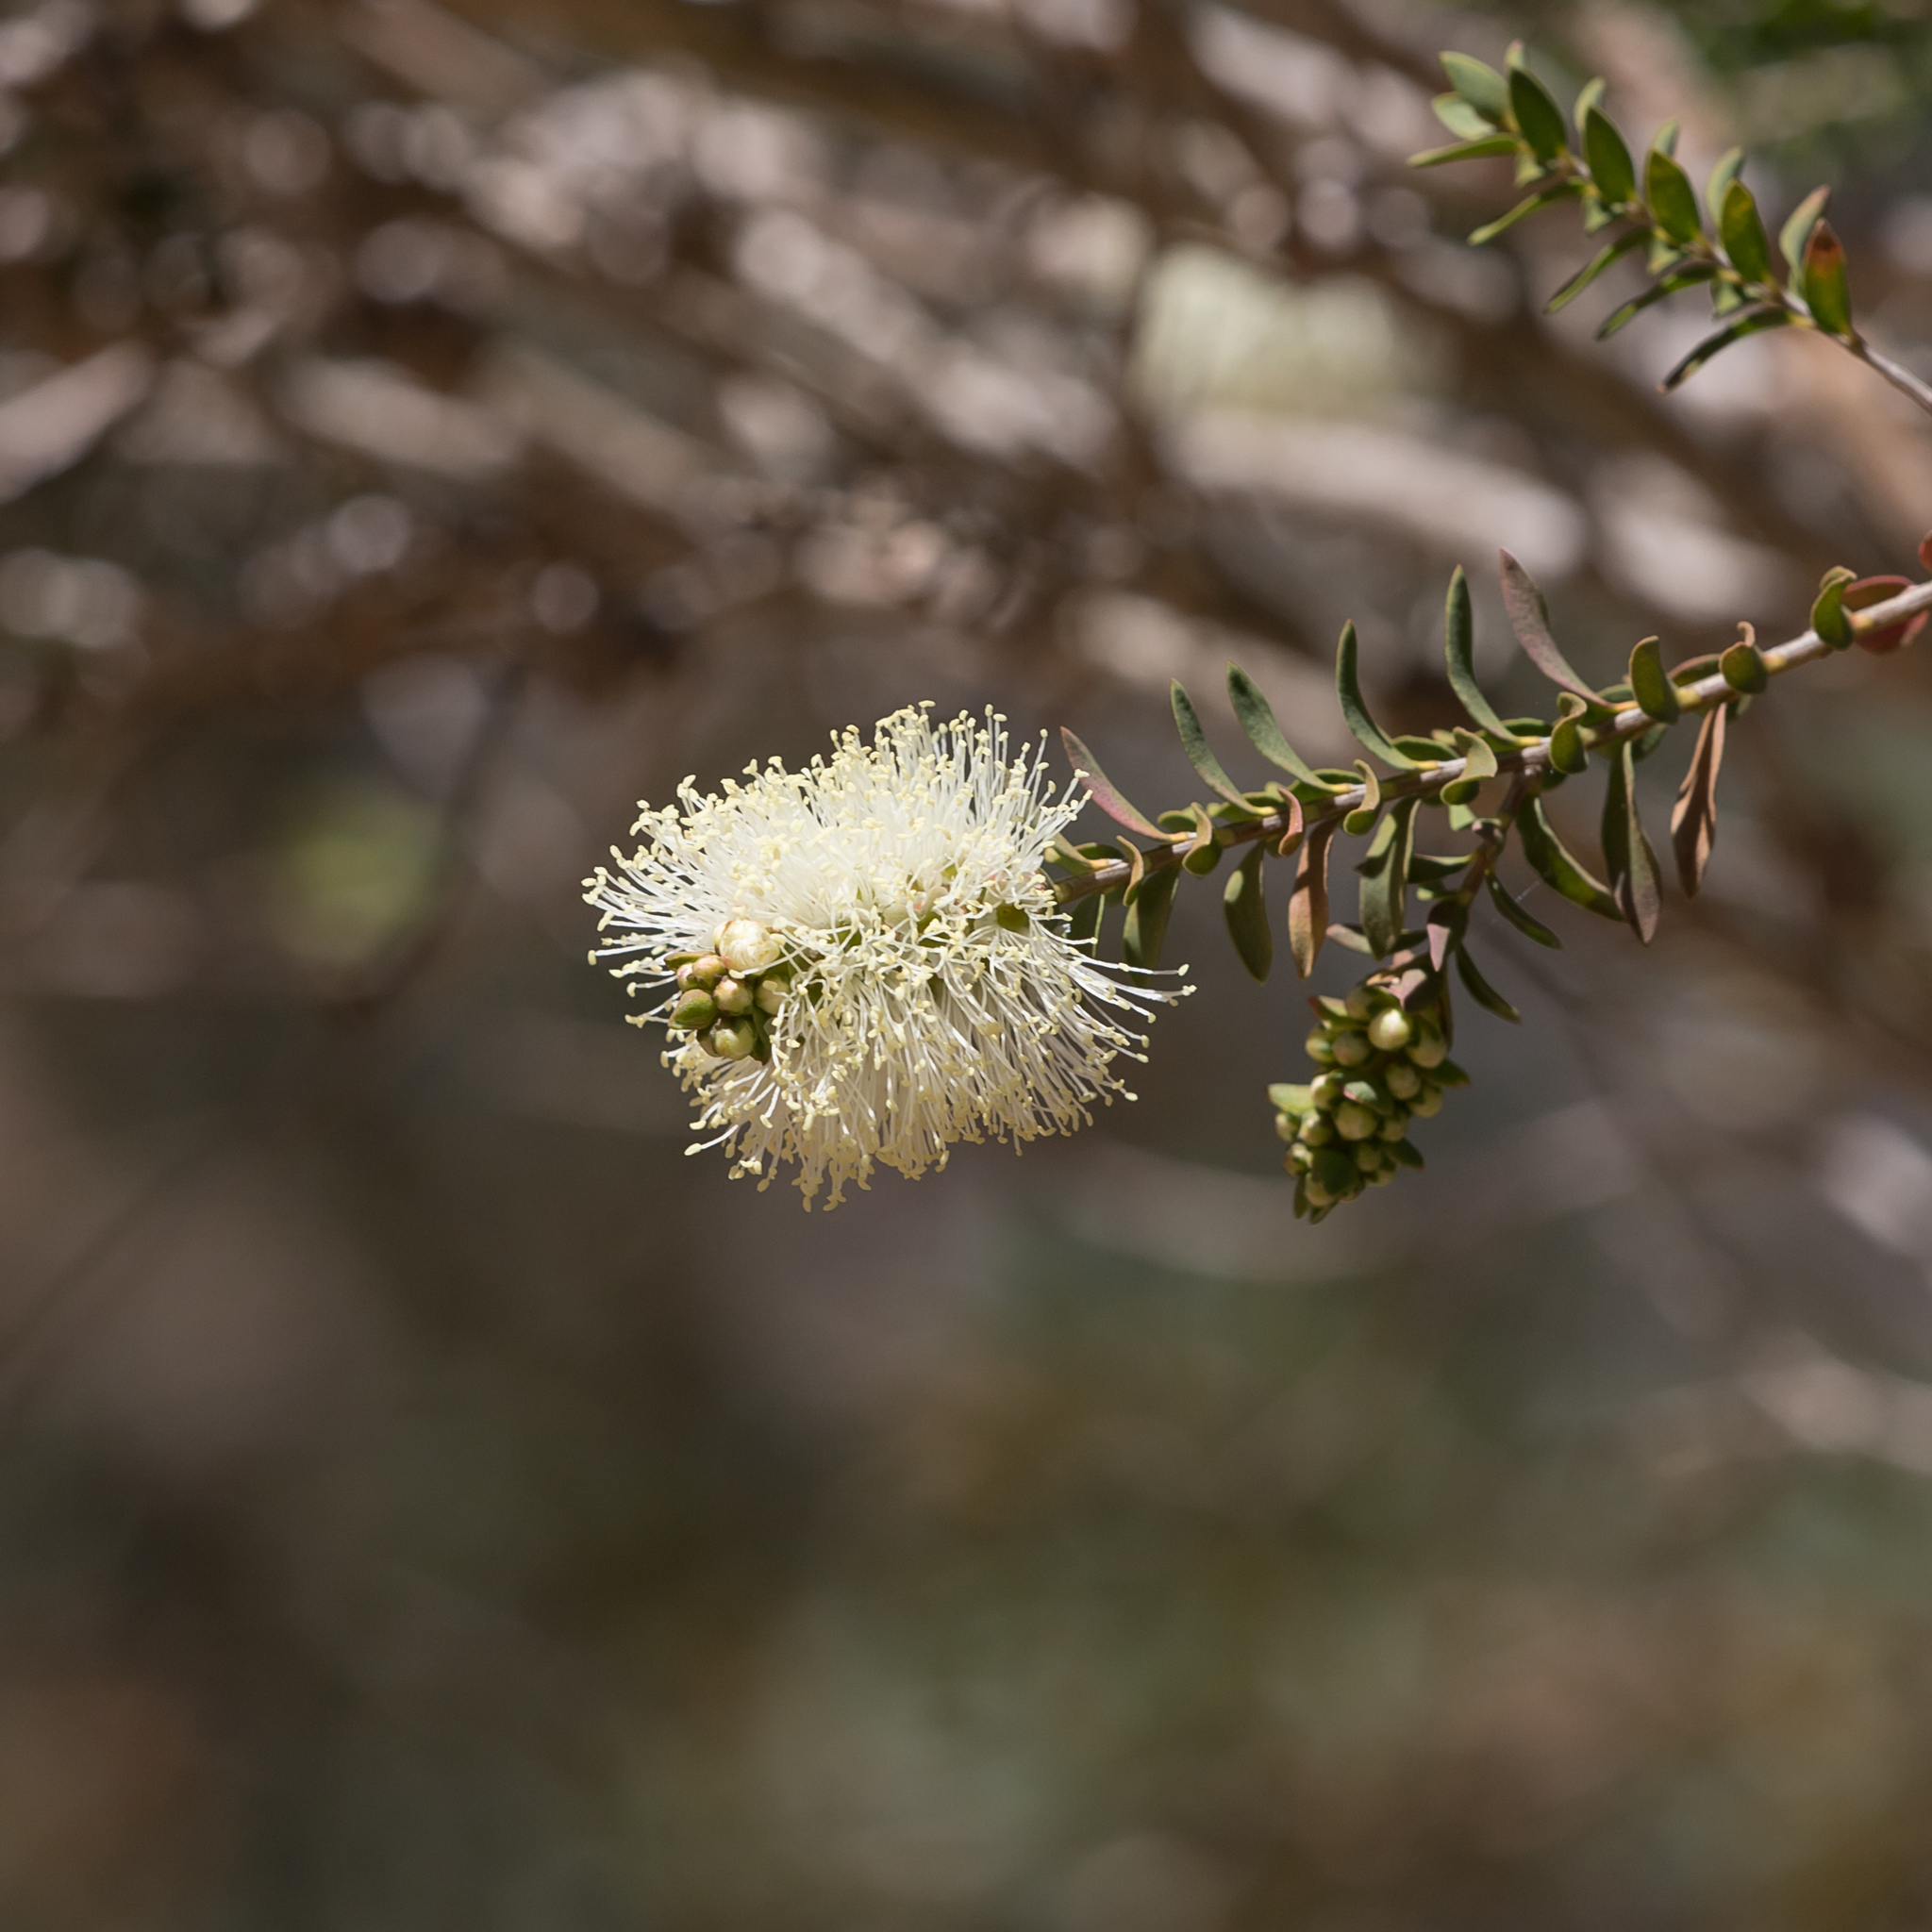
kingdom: Plantae
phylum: Tracheophyta
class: Magnoliopsida
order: Myrtales
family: Myrtaceae
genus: Melaleuca
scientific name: Melaleuca squarrosa
